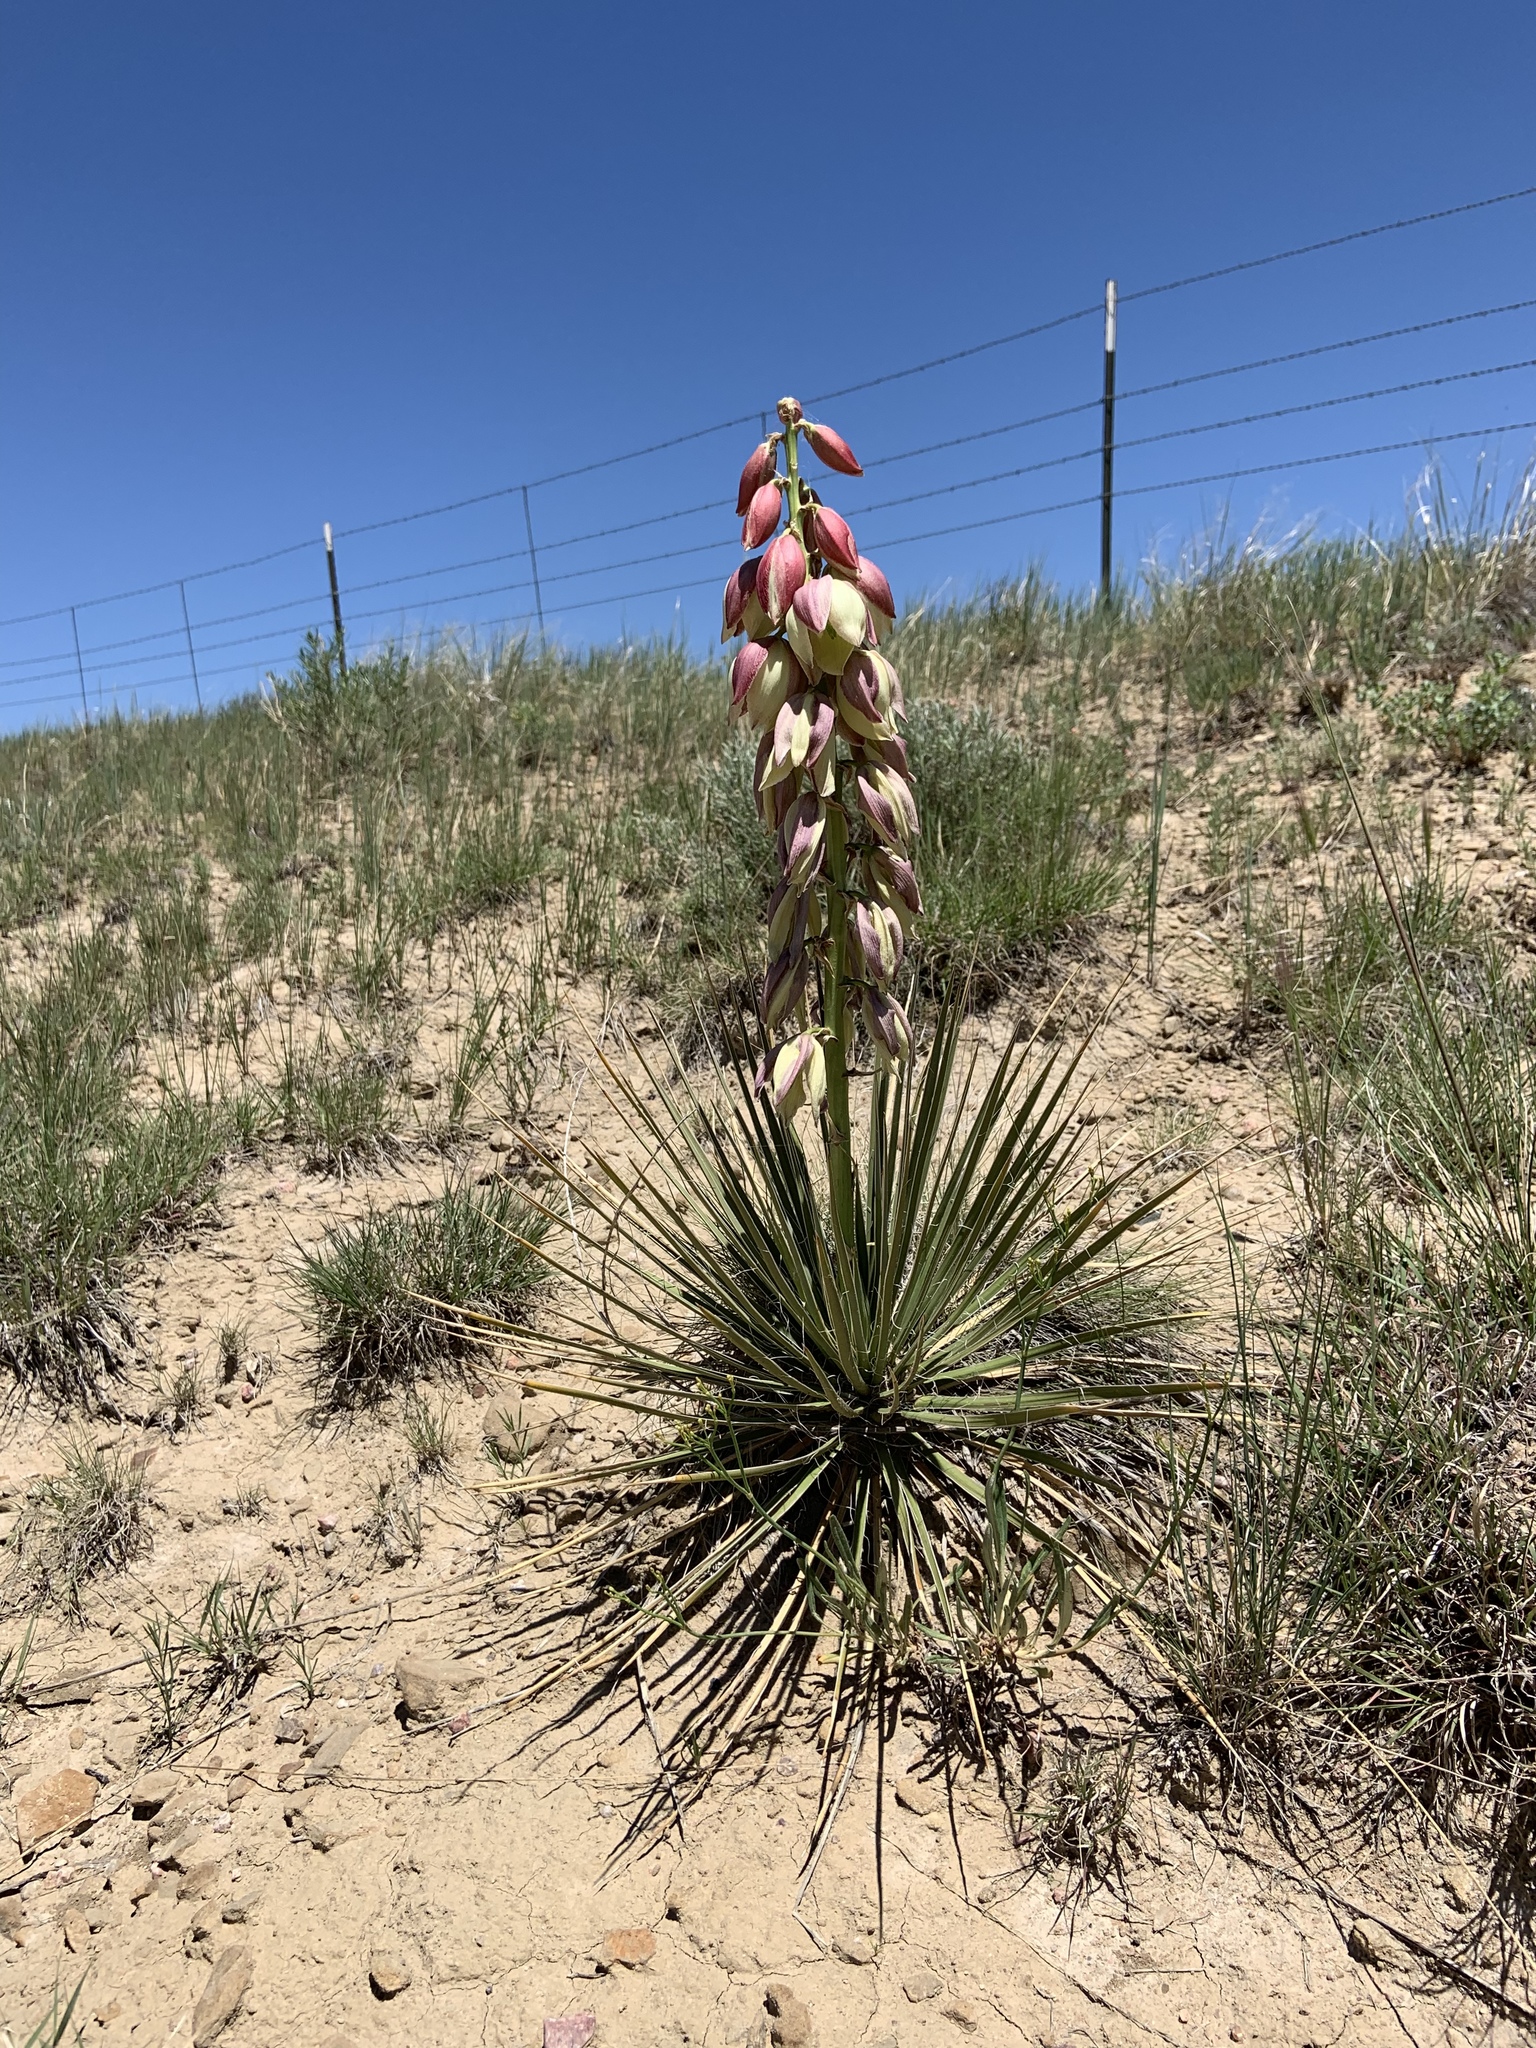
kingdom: Plantae
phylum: Tracheophyta
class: Liliopsida
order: Asparagales
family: Asparagaceae
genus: Yucca
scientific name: Yucca glauca
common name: Great plains yucca
